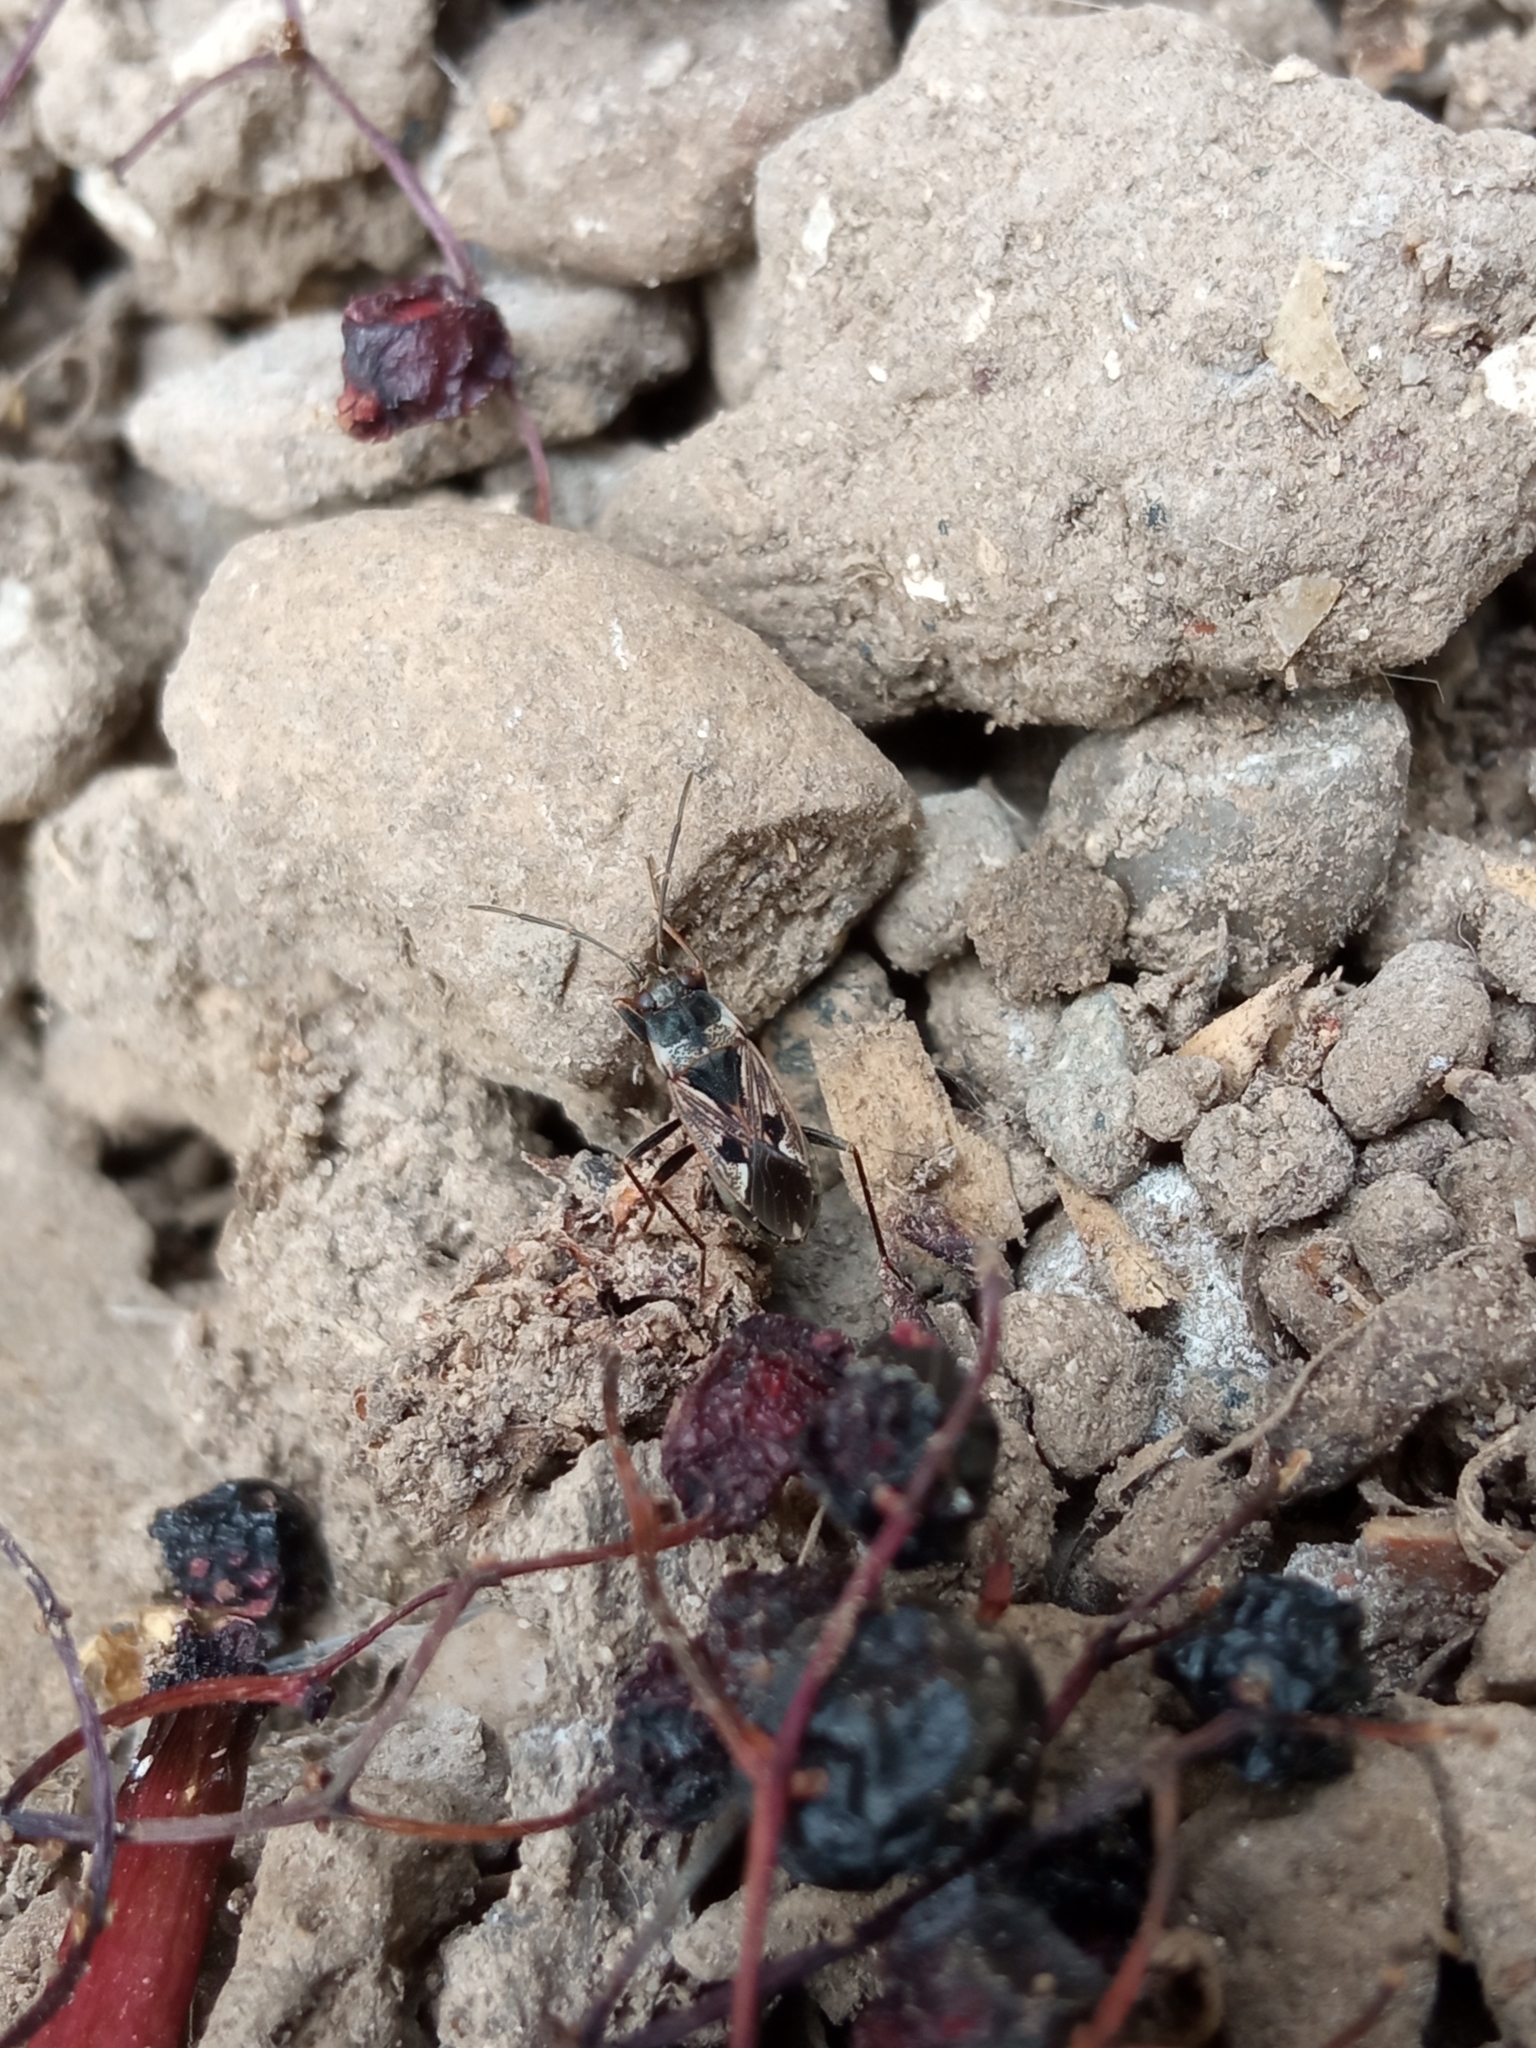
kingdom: Animalia
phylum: Arthropoda
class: Insecta
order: Hemiptera
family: Rhyparochromidae
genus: Rhyparochromus
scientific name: Rhyparochromus vulgaris
